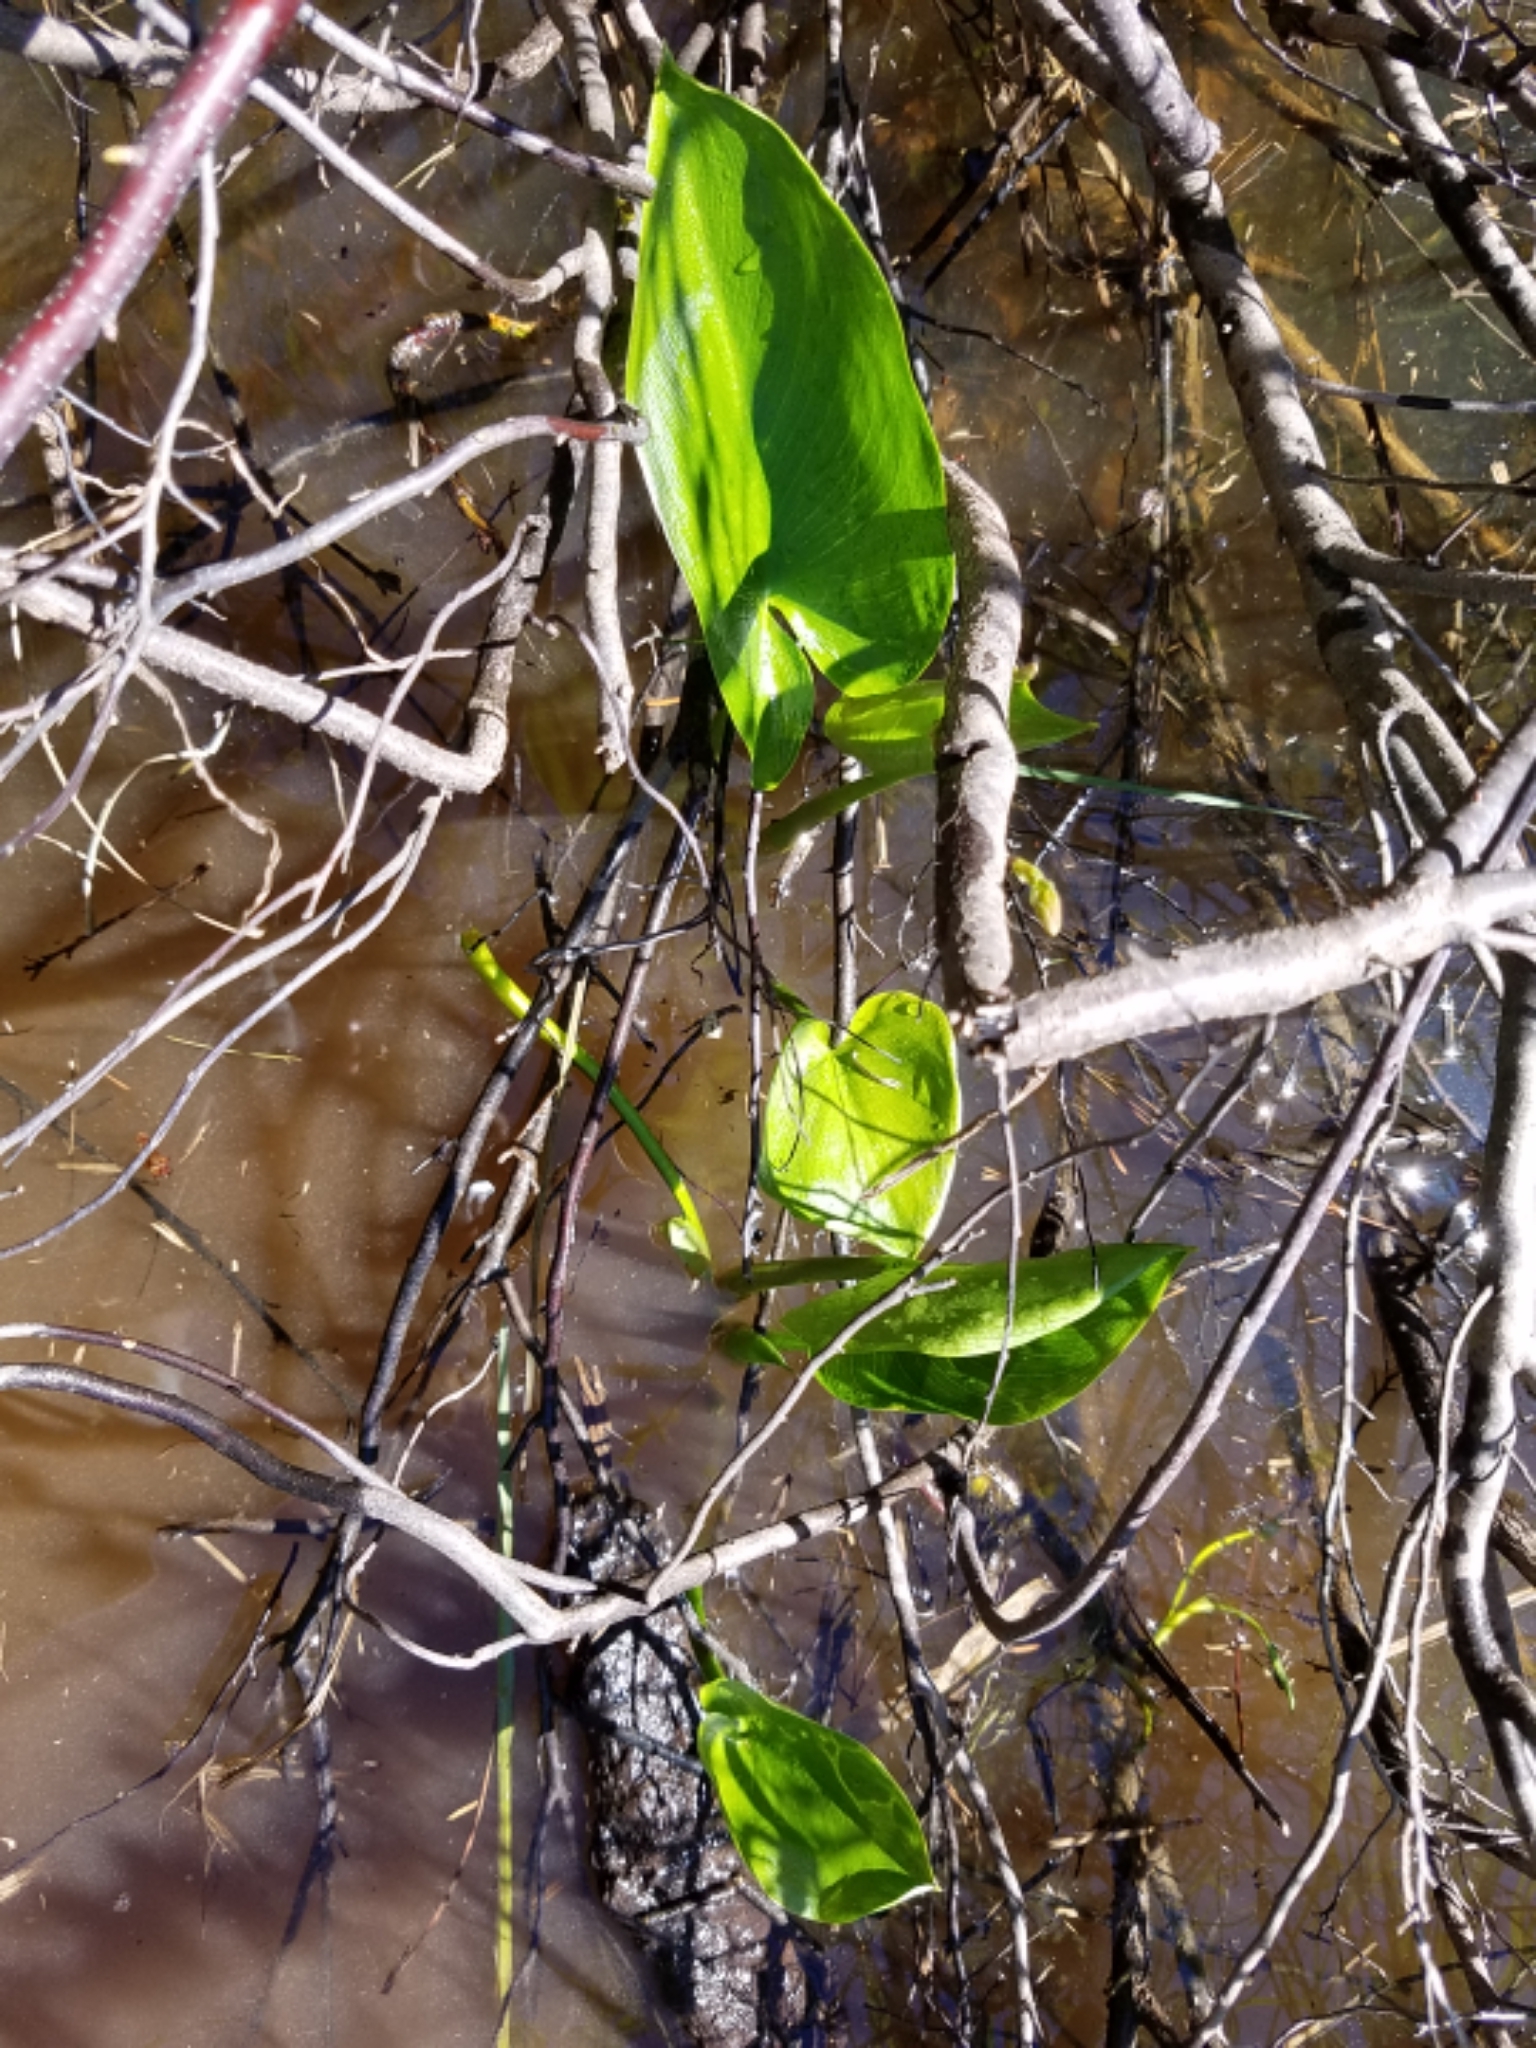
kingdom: Plantae
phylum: Tracheophyta
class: Liliopsida
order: Alismatales
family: Araceae
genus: Calla
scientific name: Calla palustris
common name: Bog arum
